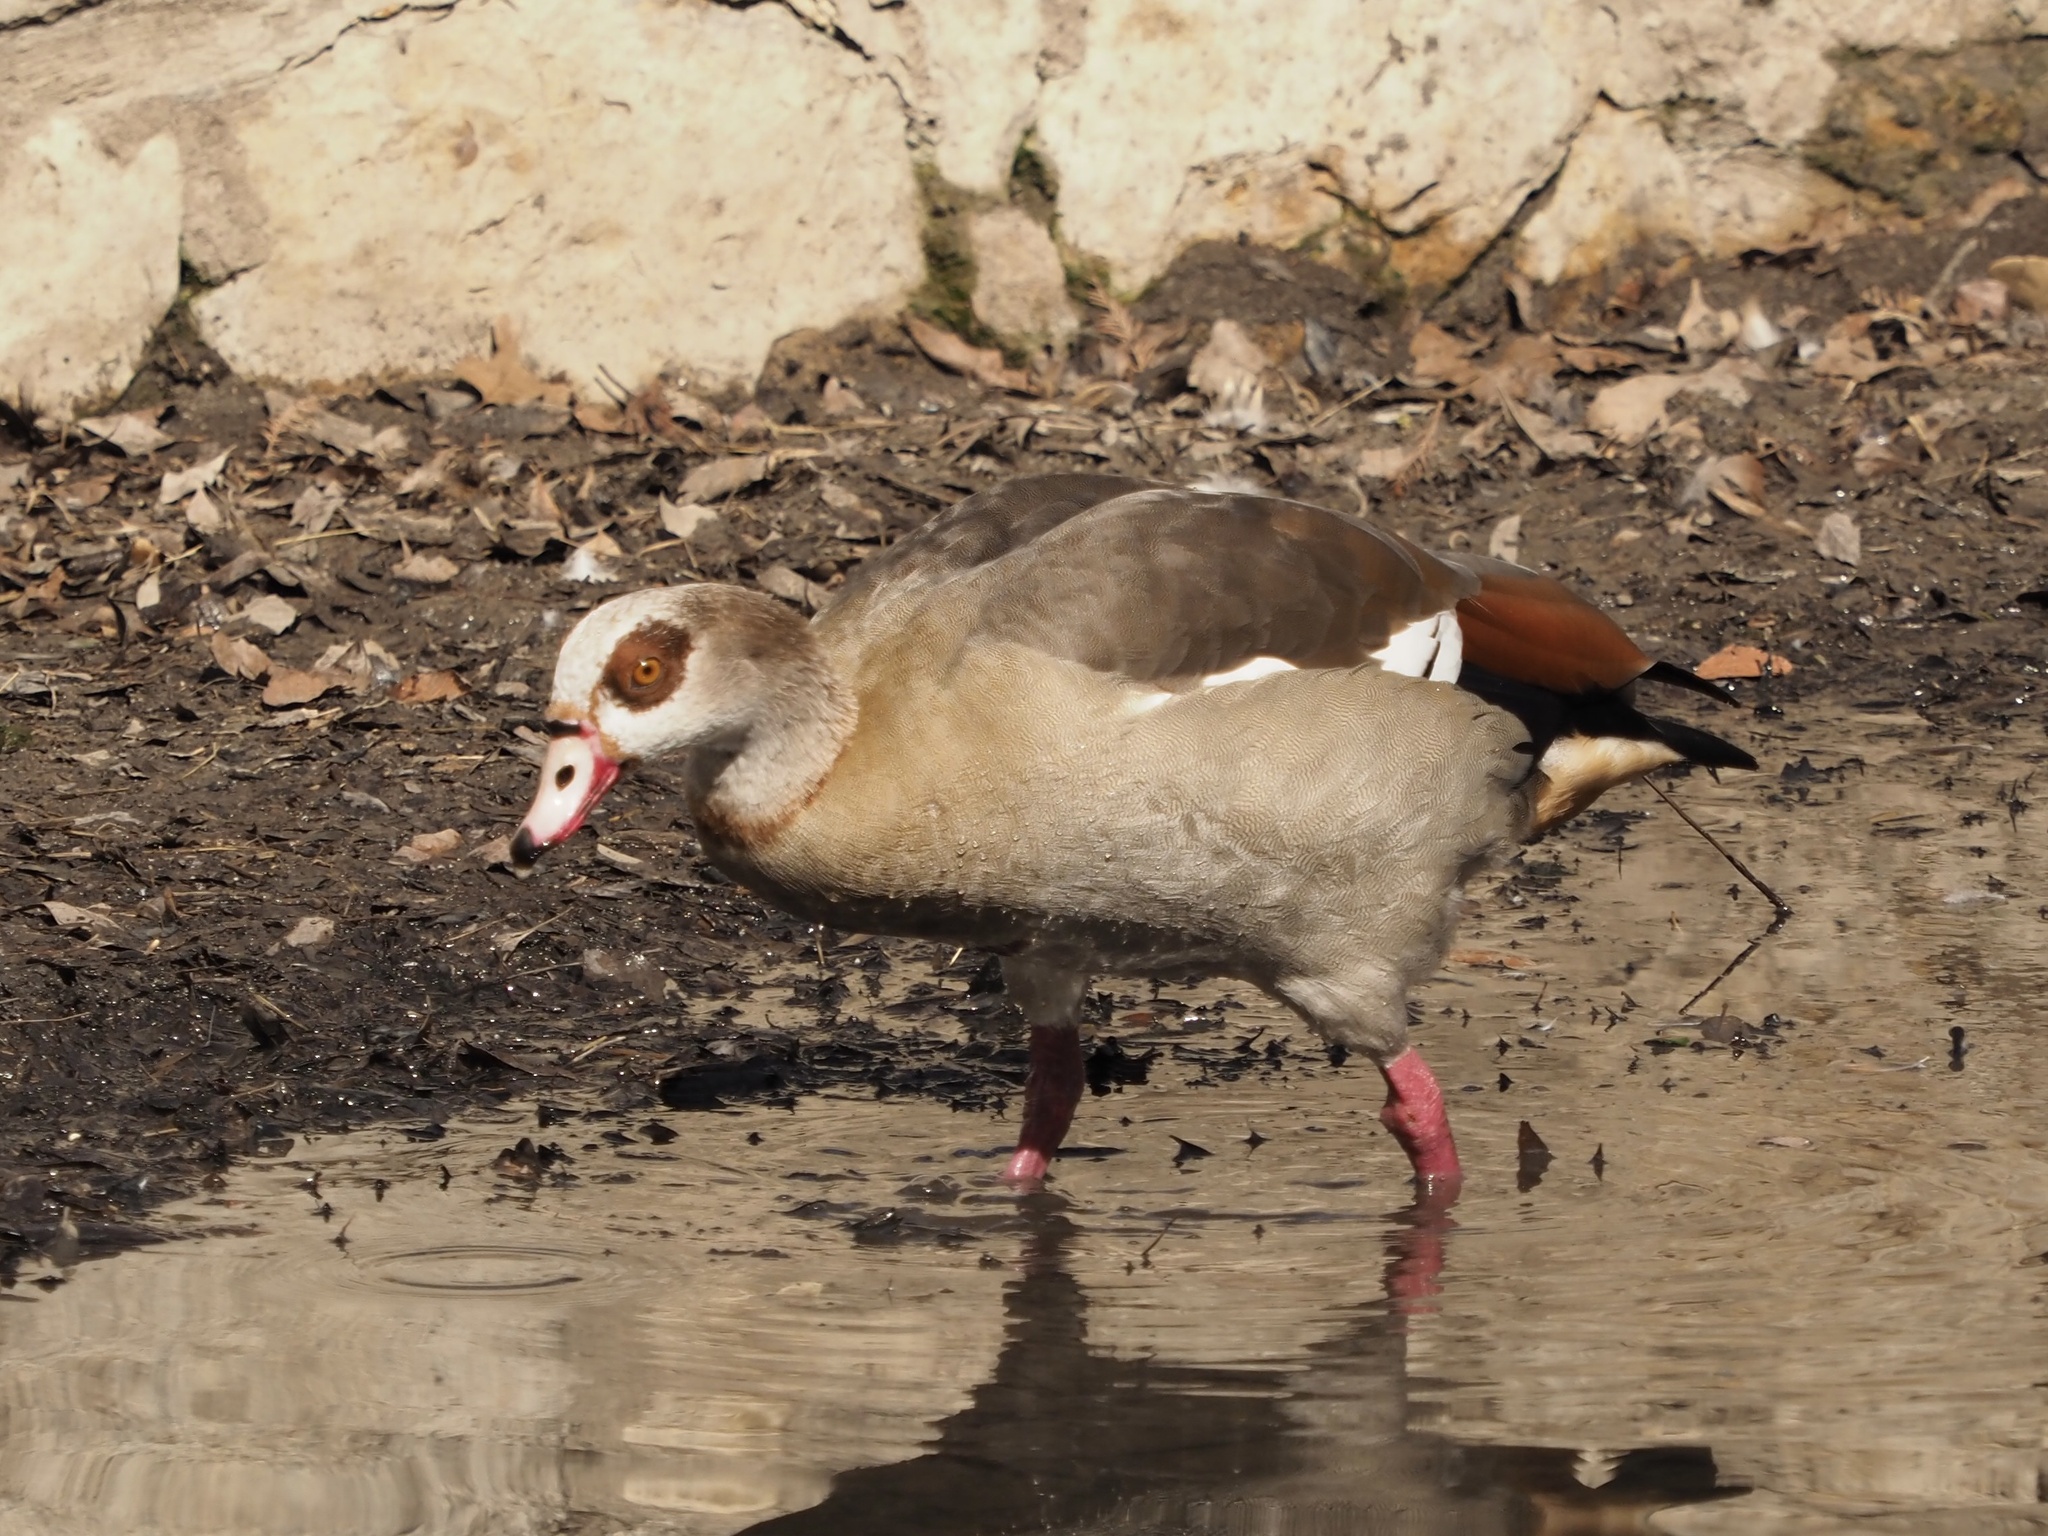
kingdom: Animalia
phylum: Chordata
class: Aves
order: Anseriformes
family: Anatidae
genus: Alopochen
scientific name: Alopochen aegyptiaca
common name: Egyptian goose
